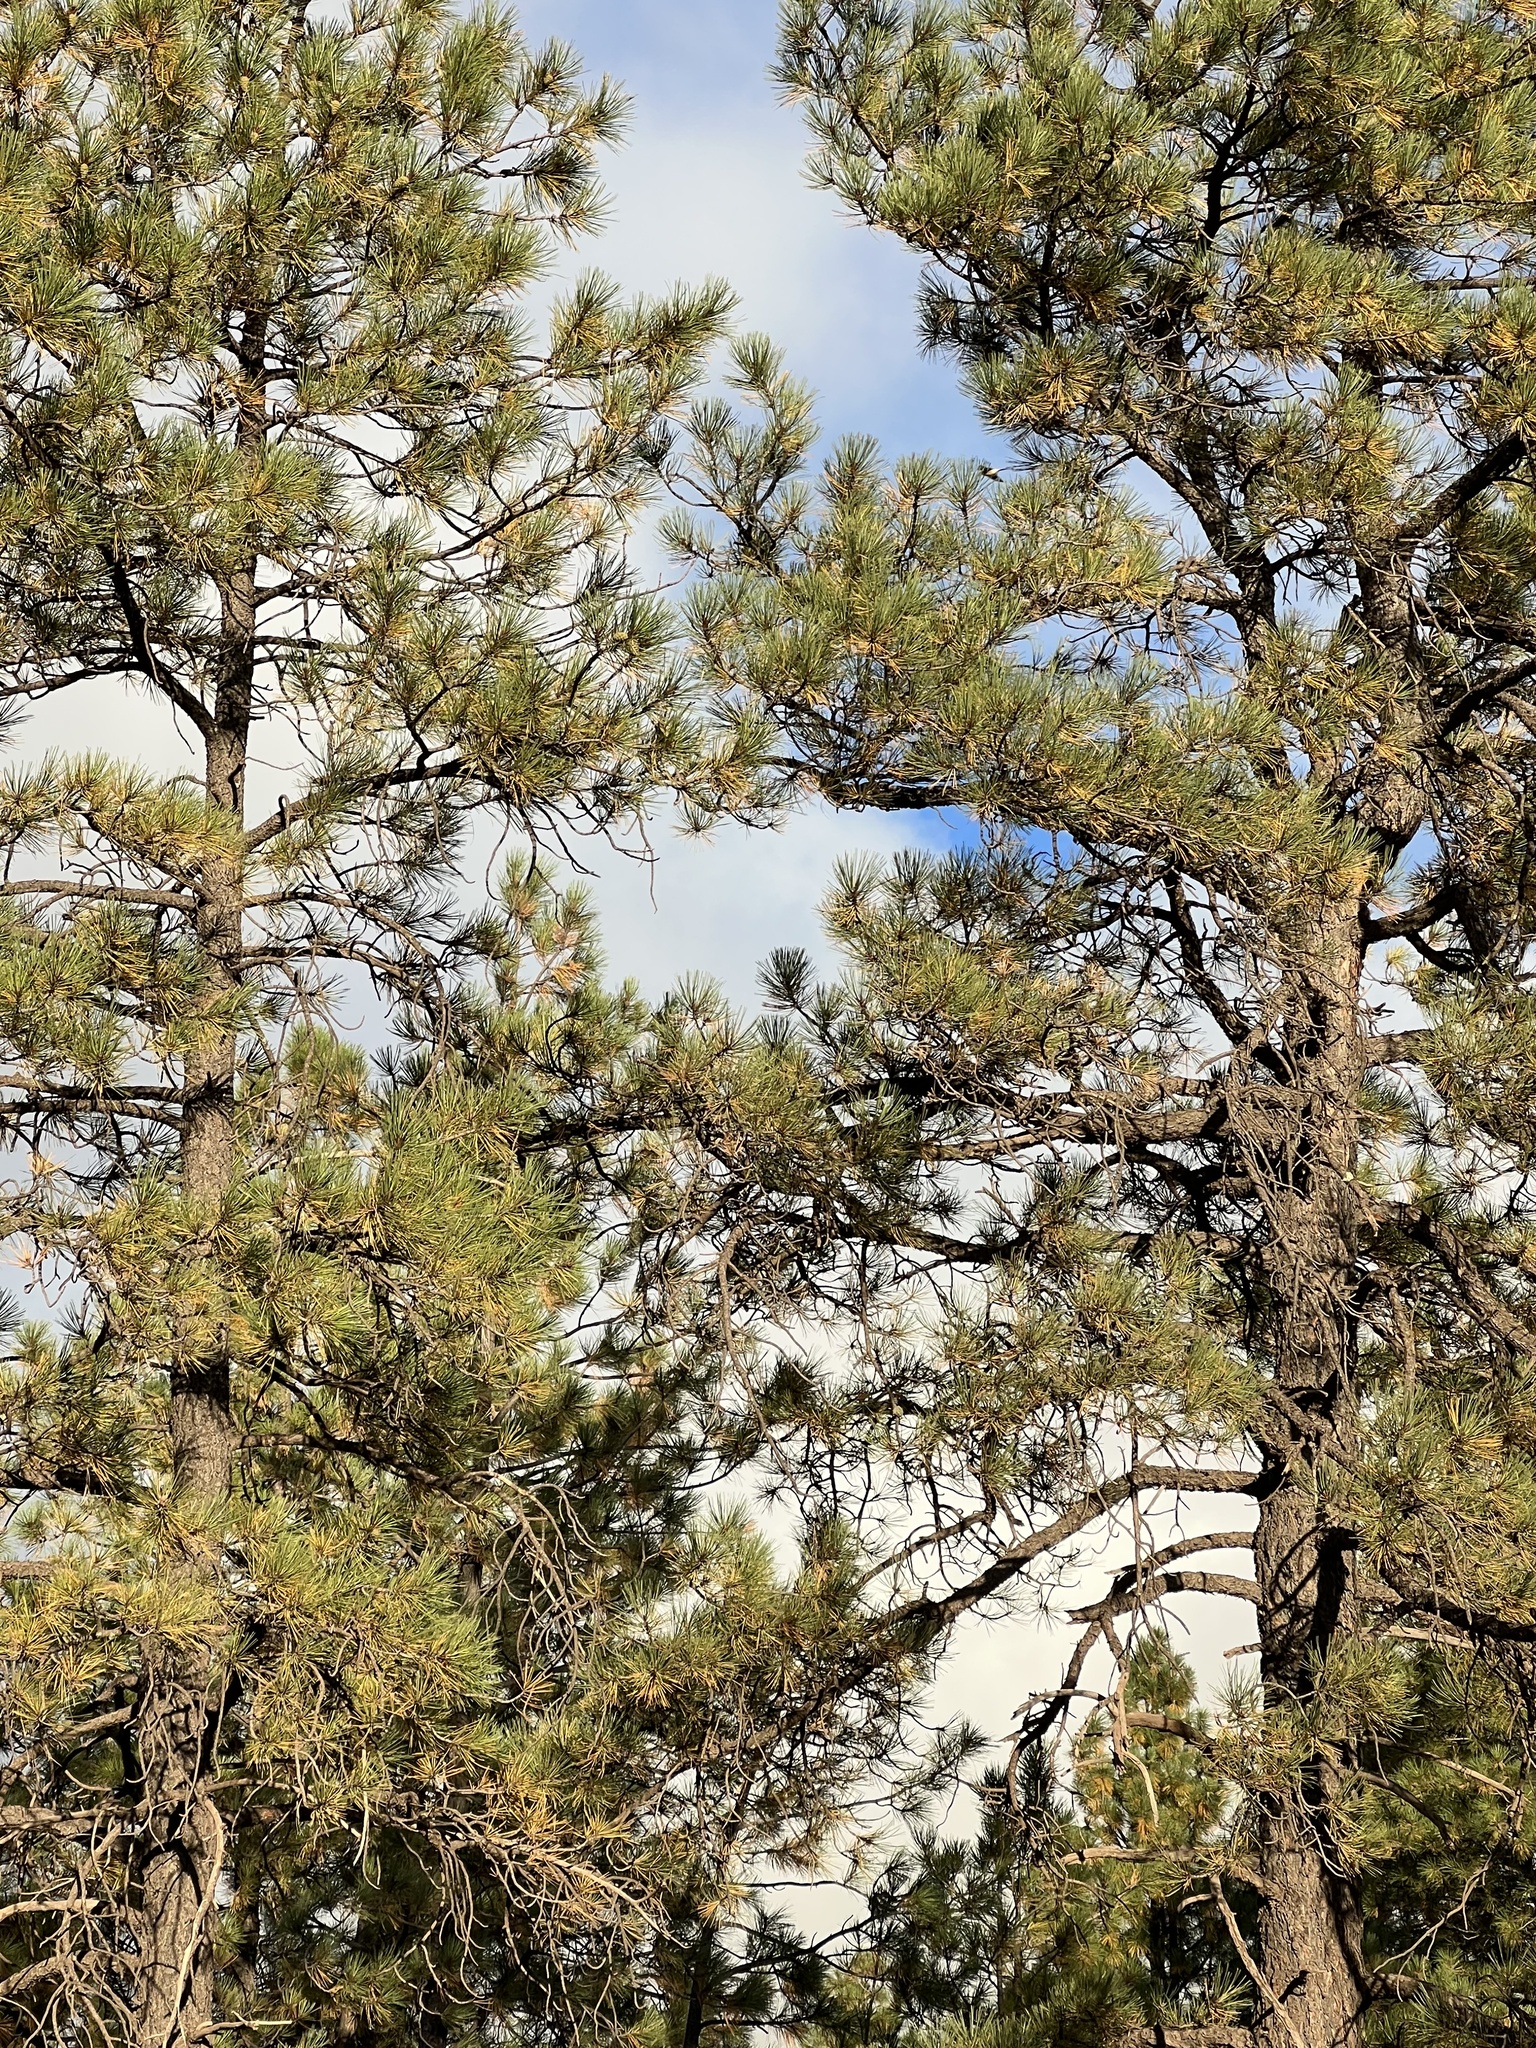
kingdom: Plantae
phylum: Tracheophyta
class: Pinopsida
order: Pinales
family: Pinaceae
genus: Pinus
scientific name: Pinus ponderosa
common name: Western yellow-pine
